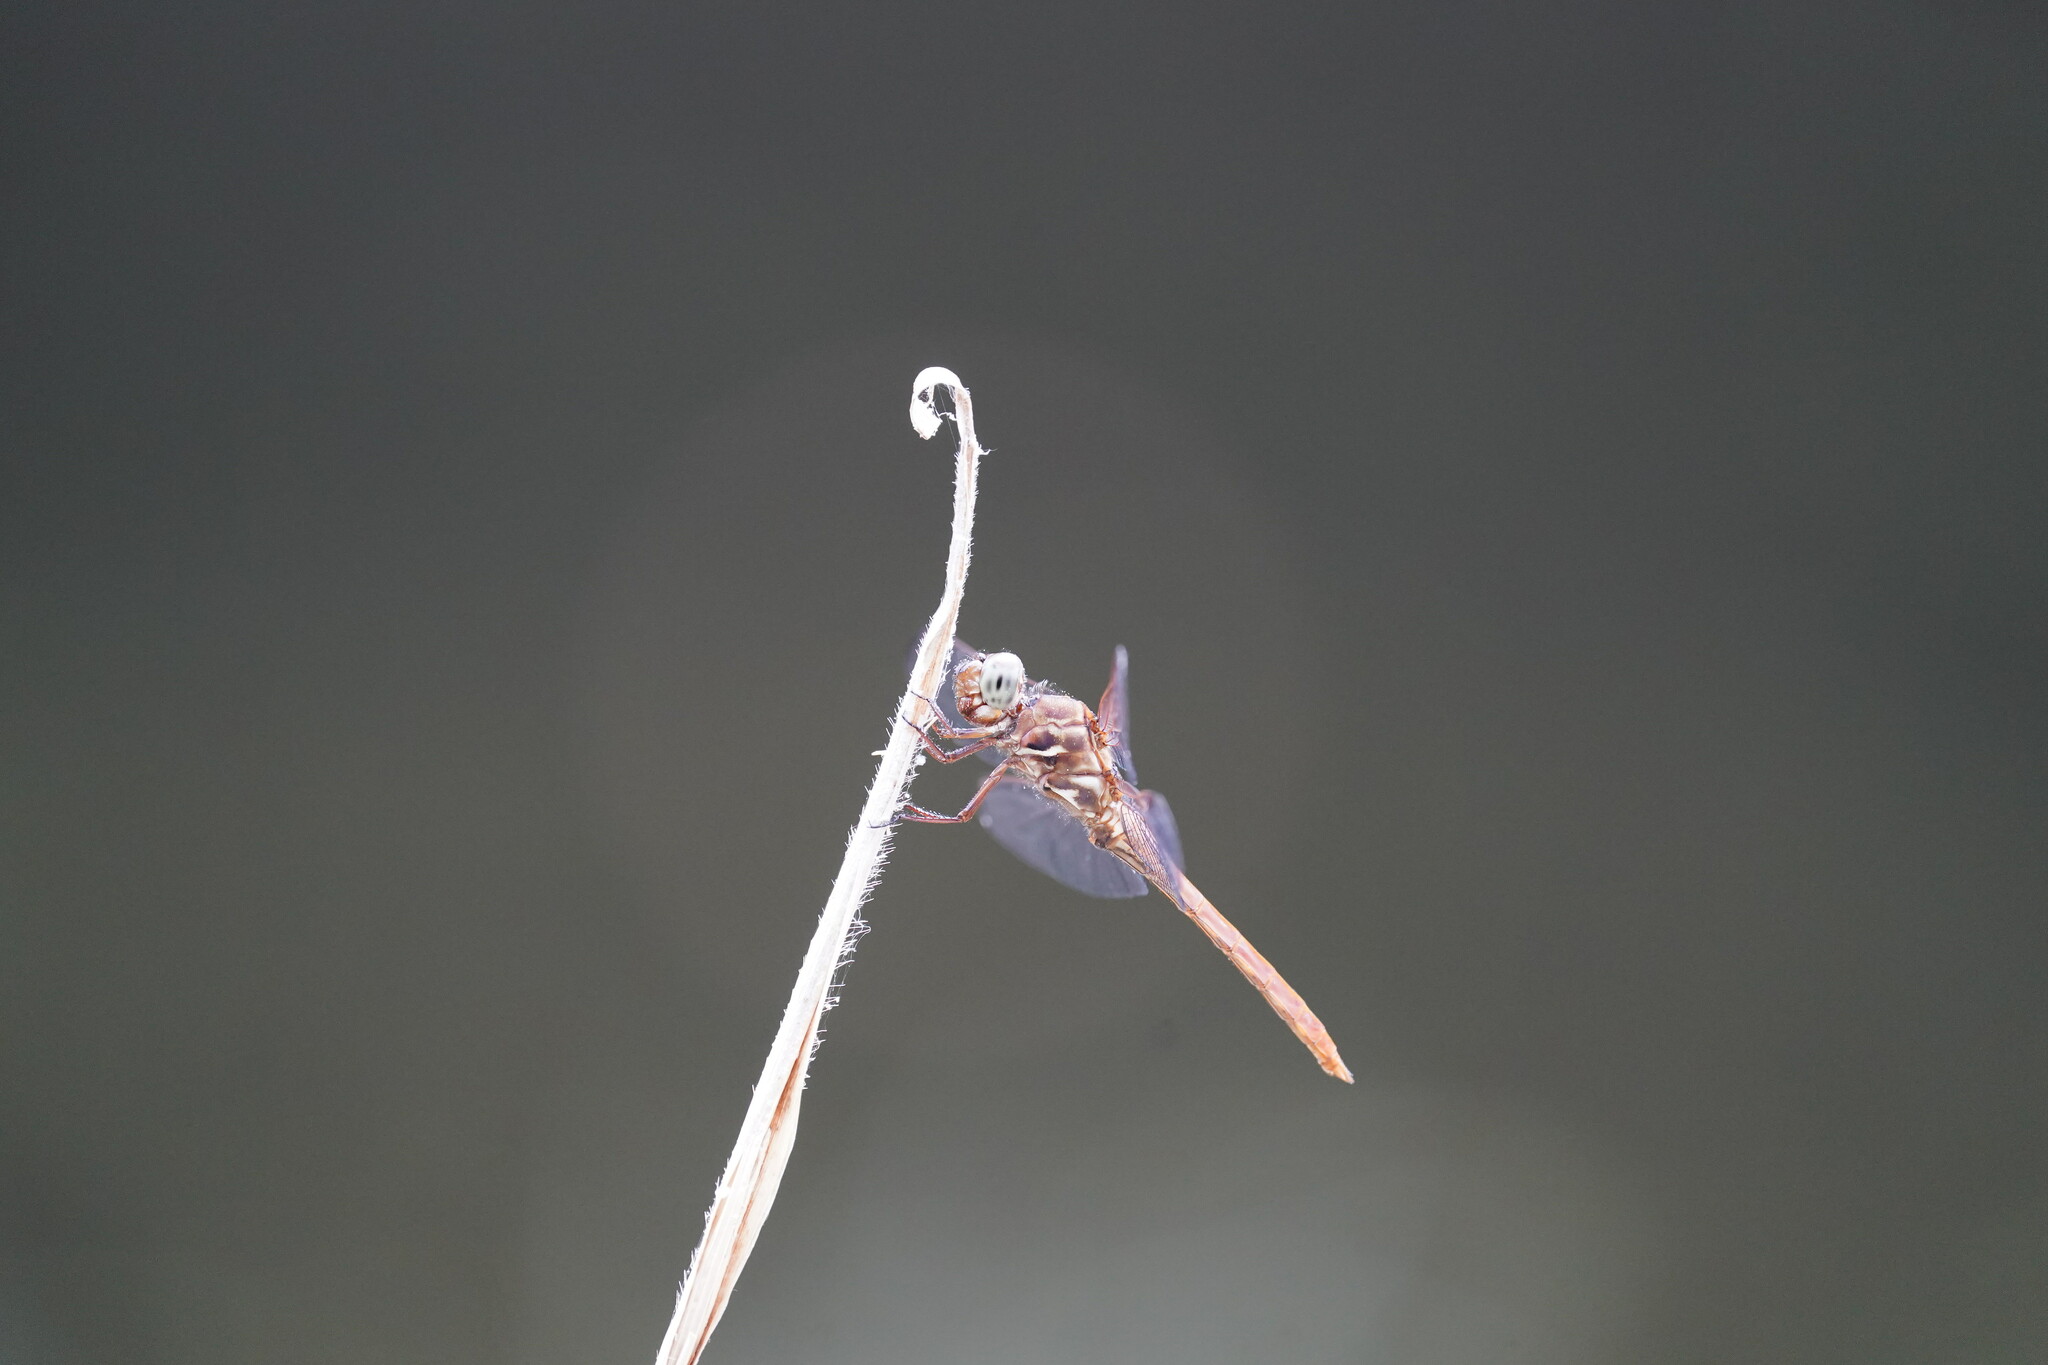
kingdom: Animalia
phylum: Arthropoda
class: Insecta
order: Odonata
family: Libellulidae
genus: Orthemis
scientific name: Orthemis ferruginea
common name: Roseate skimmer
